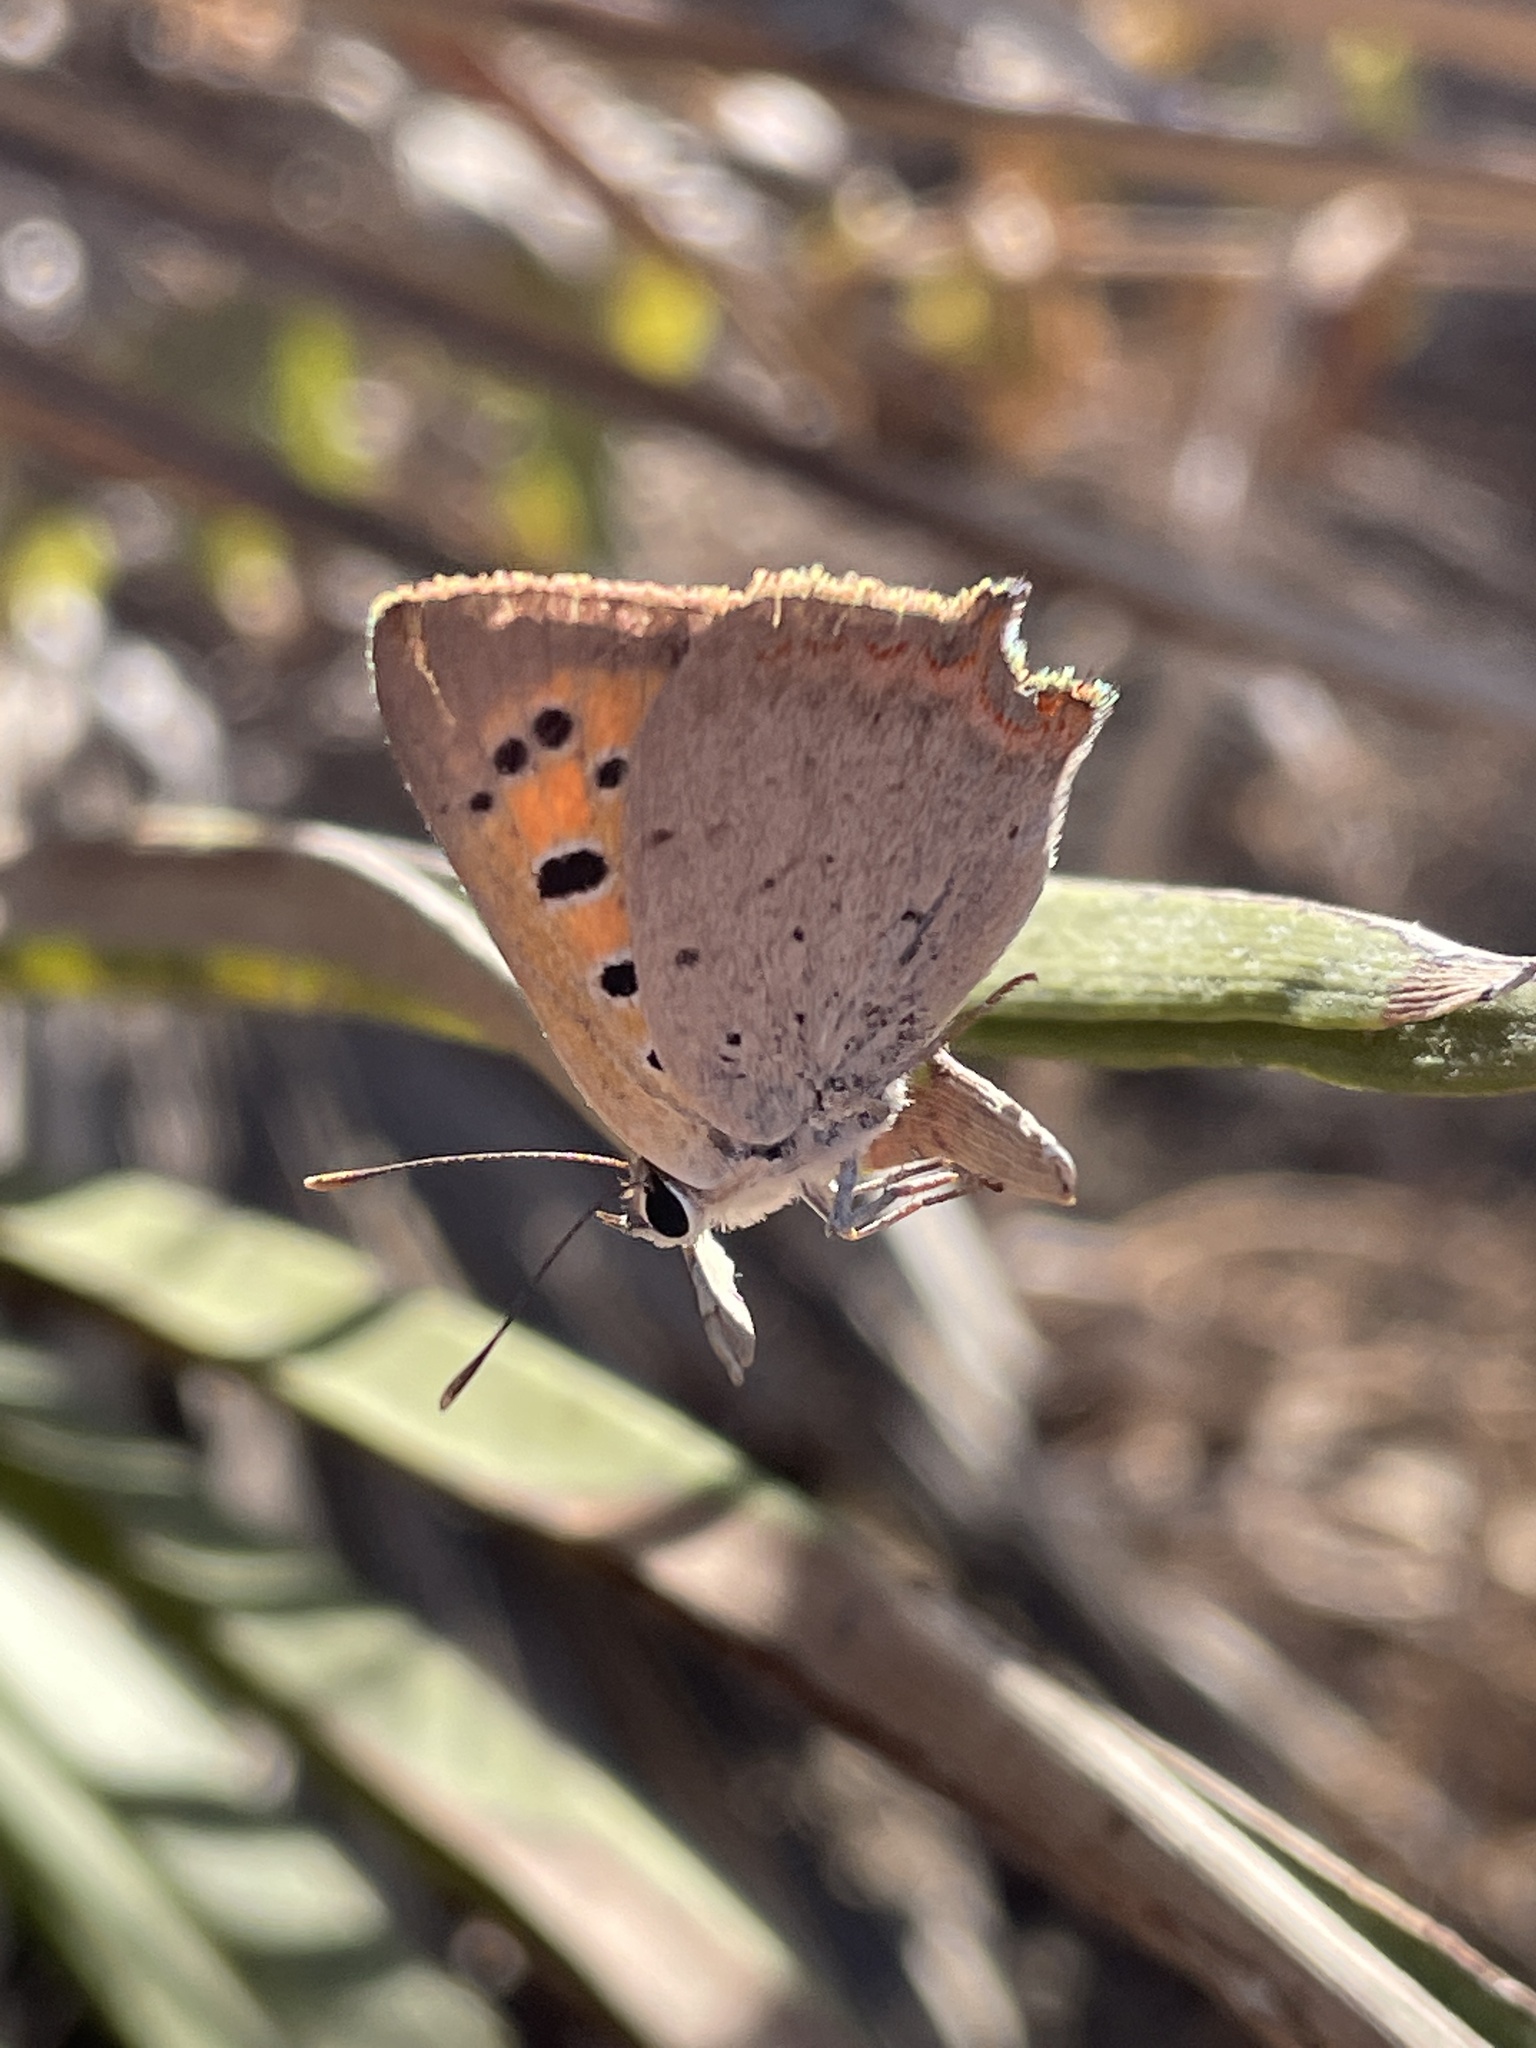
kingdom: Animalia
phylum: Arthropoda
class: Insecta
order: Lepidoptera
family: Lycaenidae
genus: Lycaena
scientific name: Lycaena phlaeas
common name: Small copper
